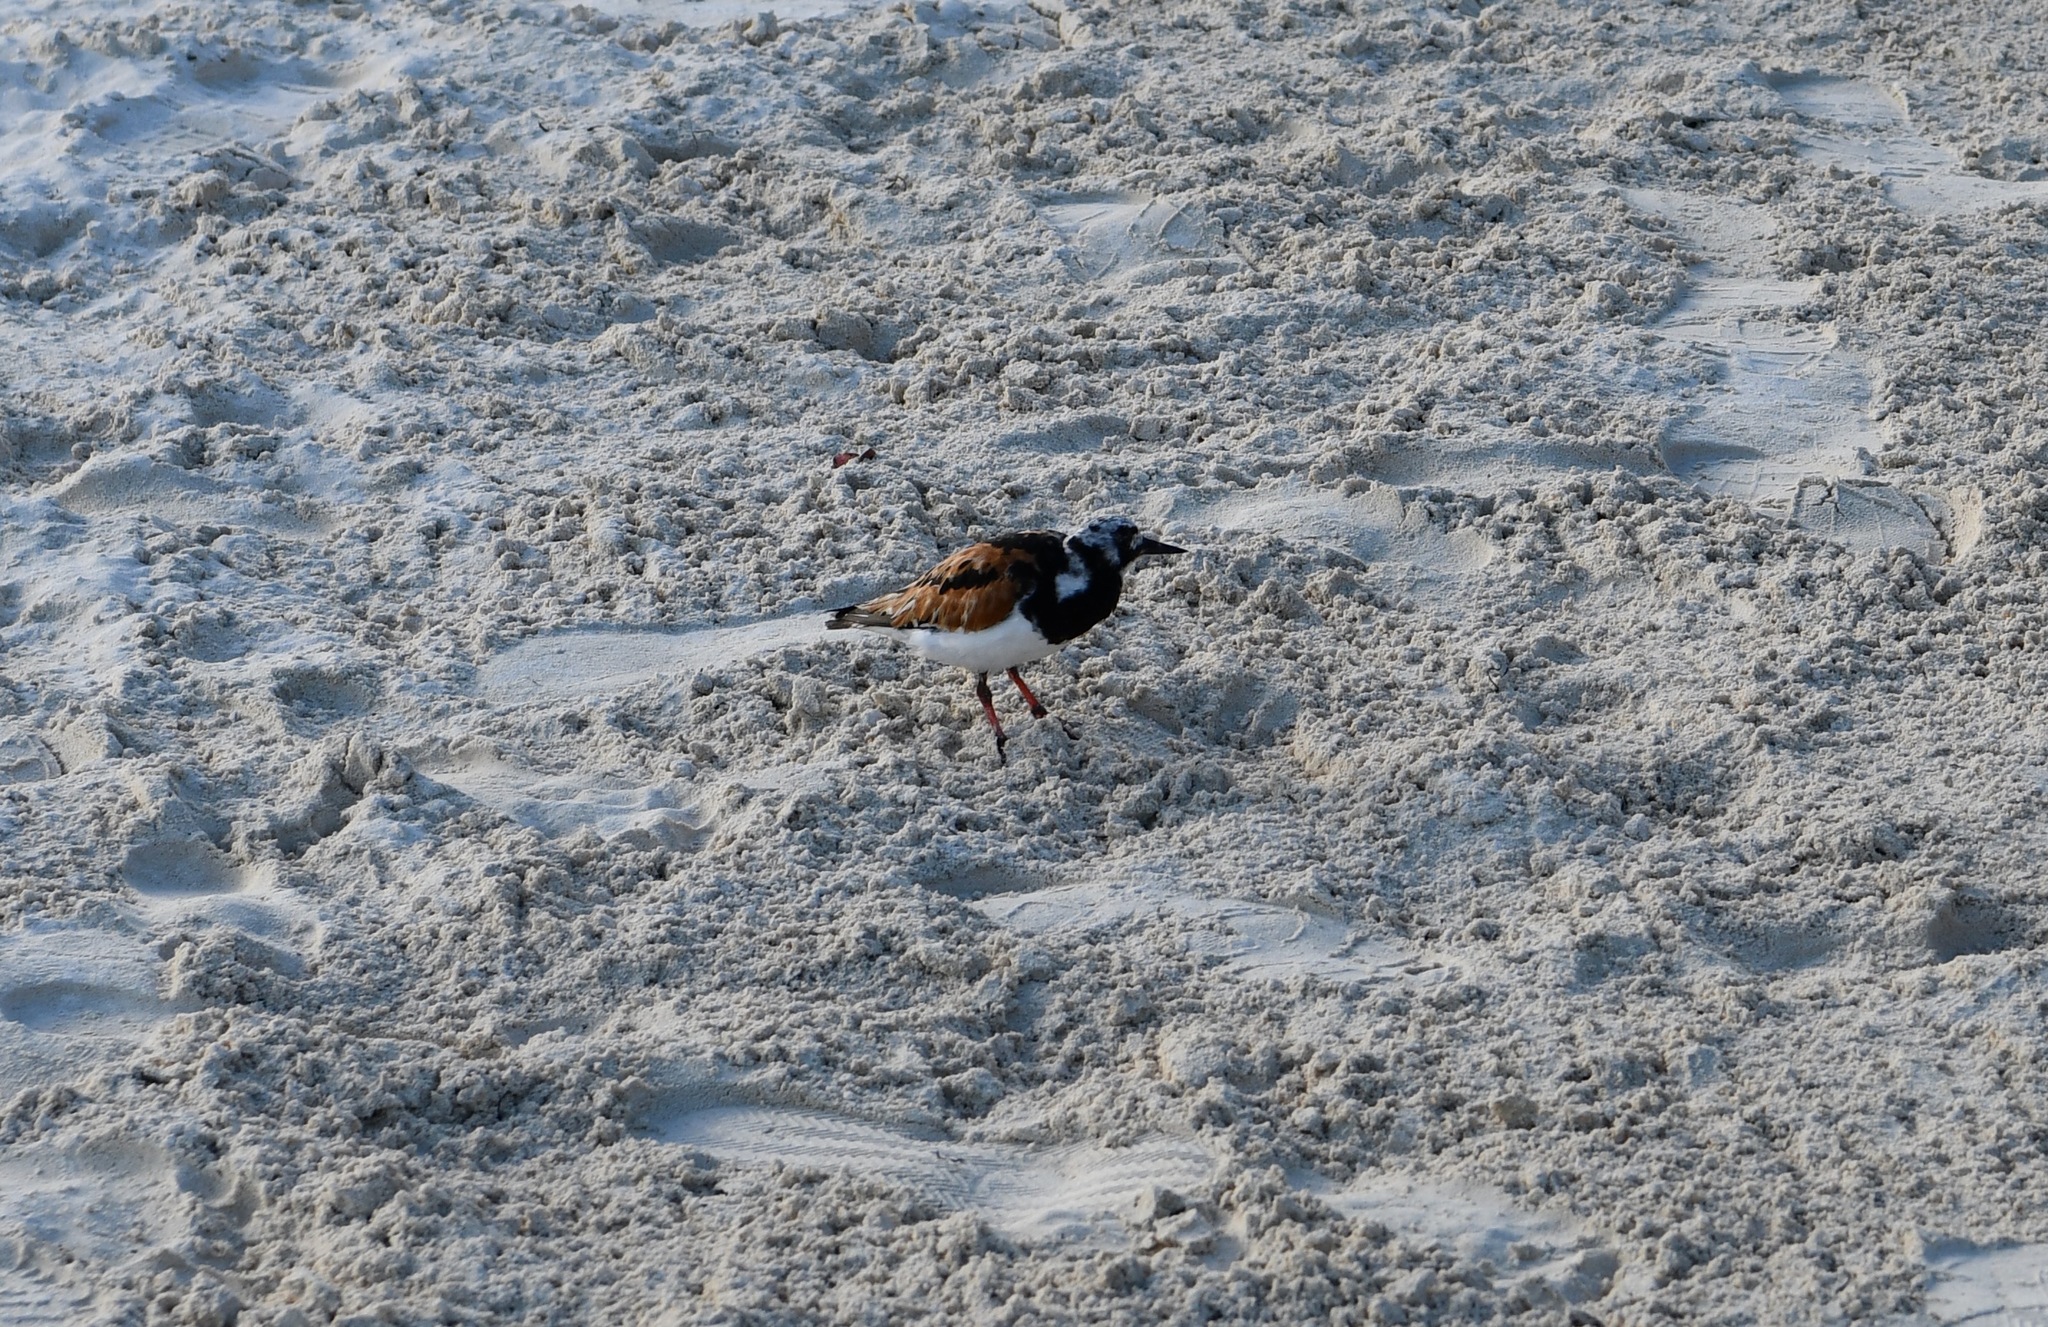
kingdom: Animalia
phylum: Chordata
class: Aves
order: Charadriiformes
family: Scolopacidae
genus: Arenaria
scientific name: Arenaria interpres
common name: Ruddy turnstone
